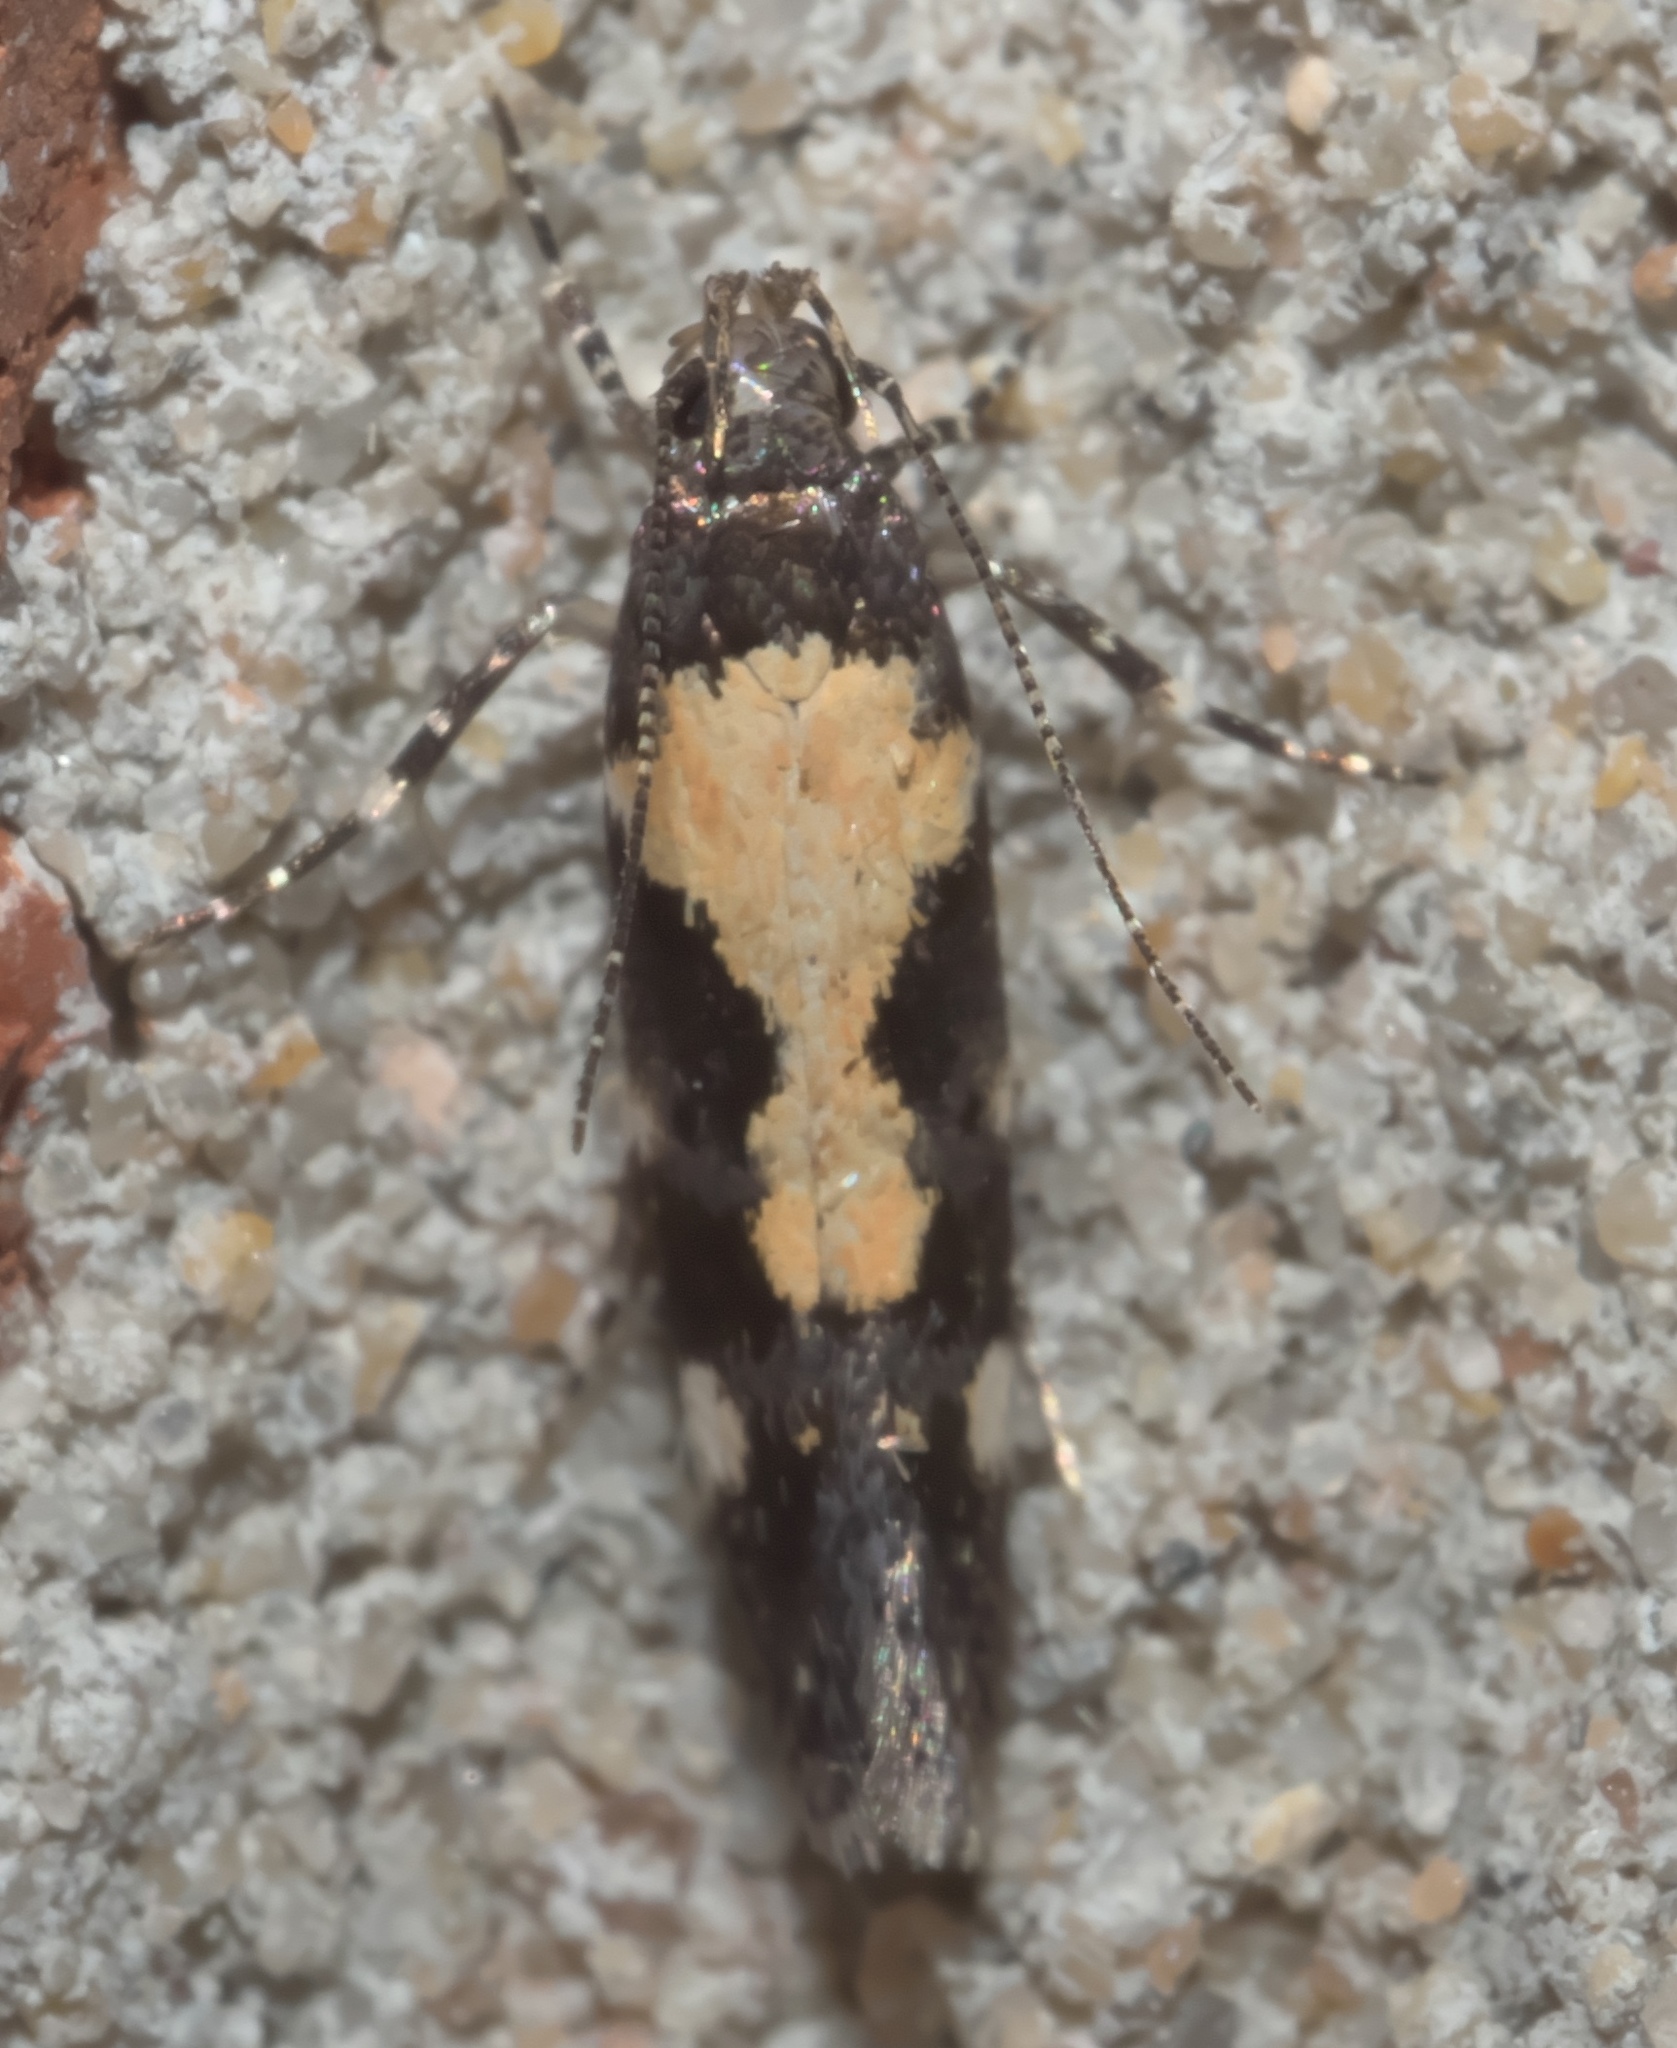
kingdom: Animalia
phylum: Arthropoda
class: Insecta
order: Lepidoptera
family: Gelechiidae
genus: Stegasta
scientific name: Stegasta bosqueella
